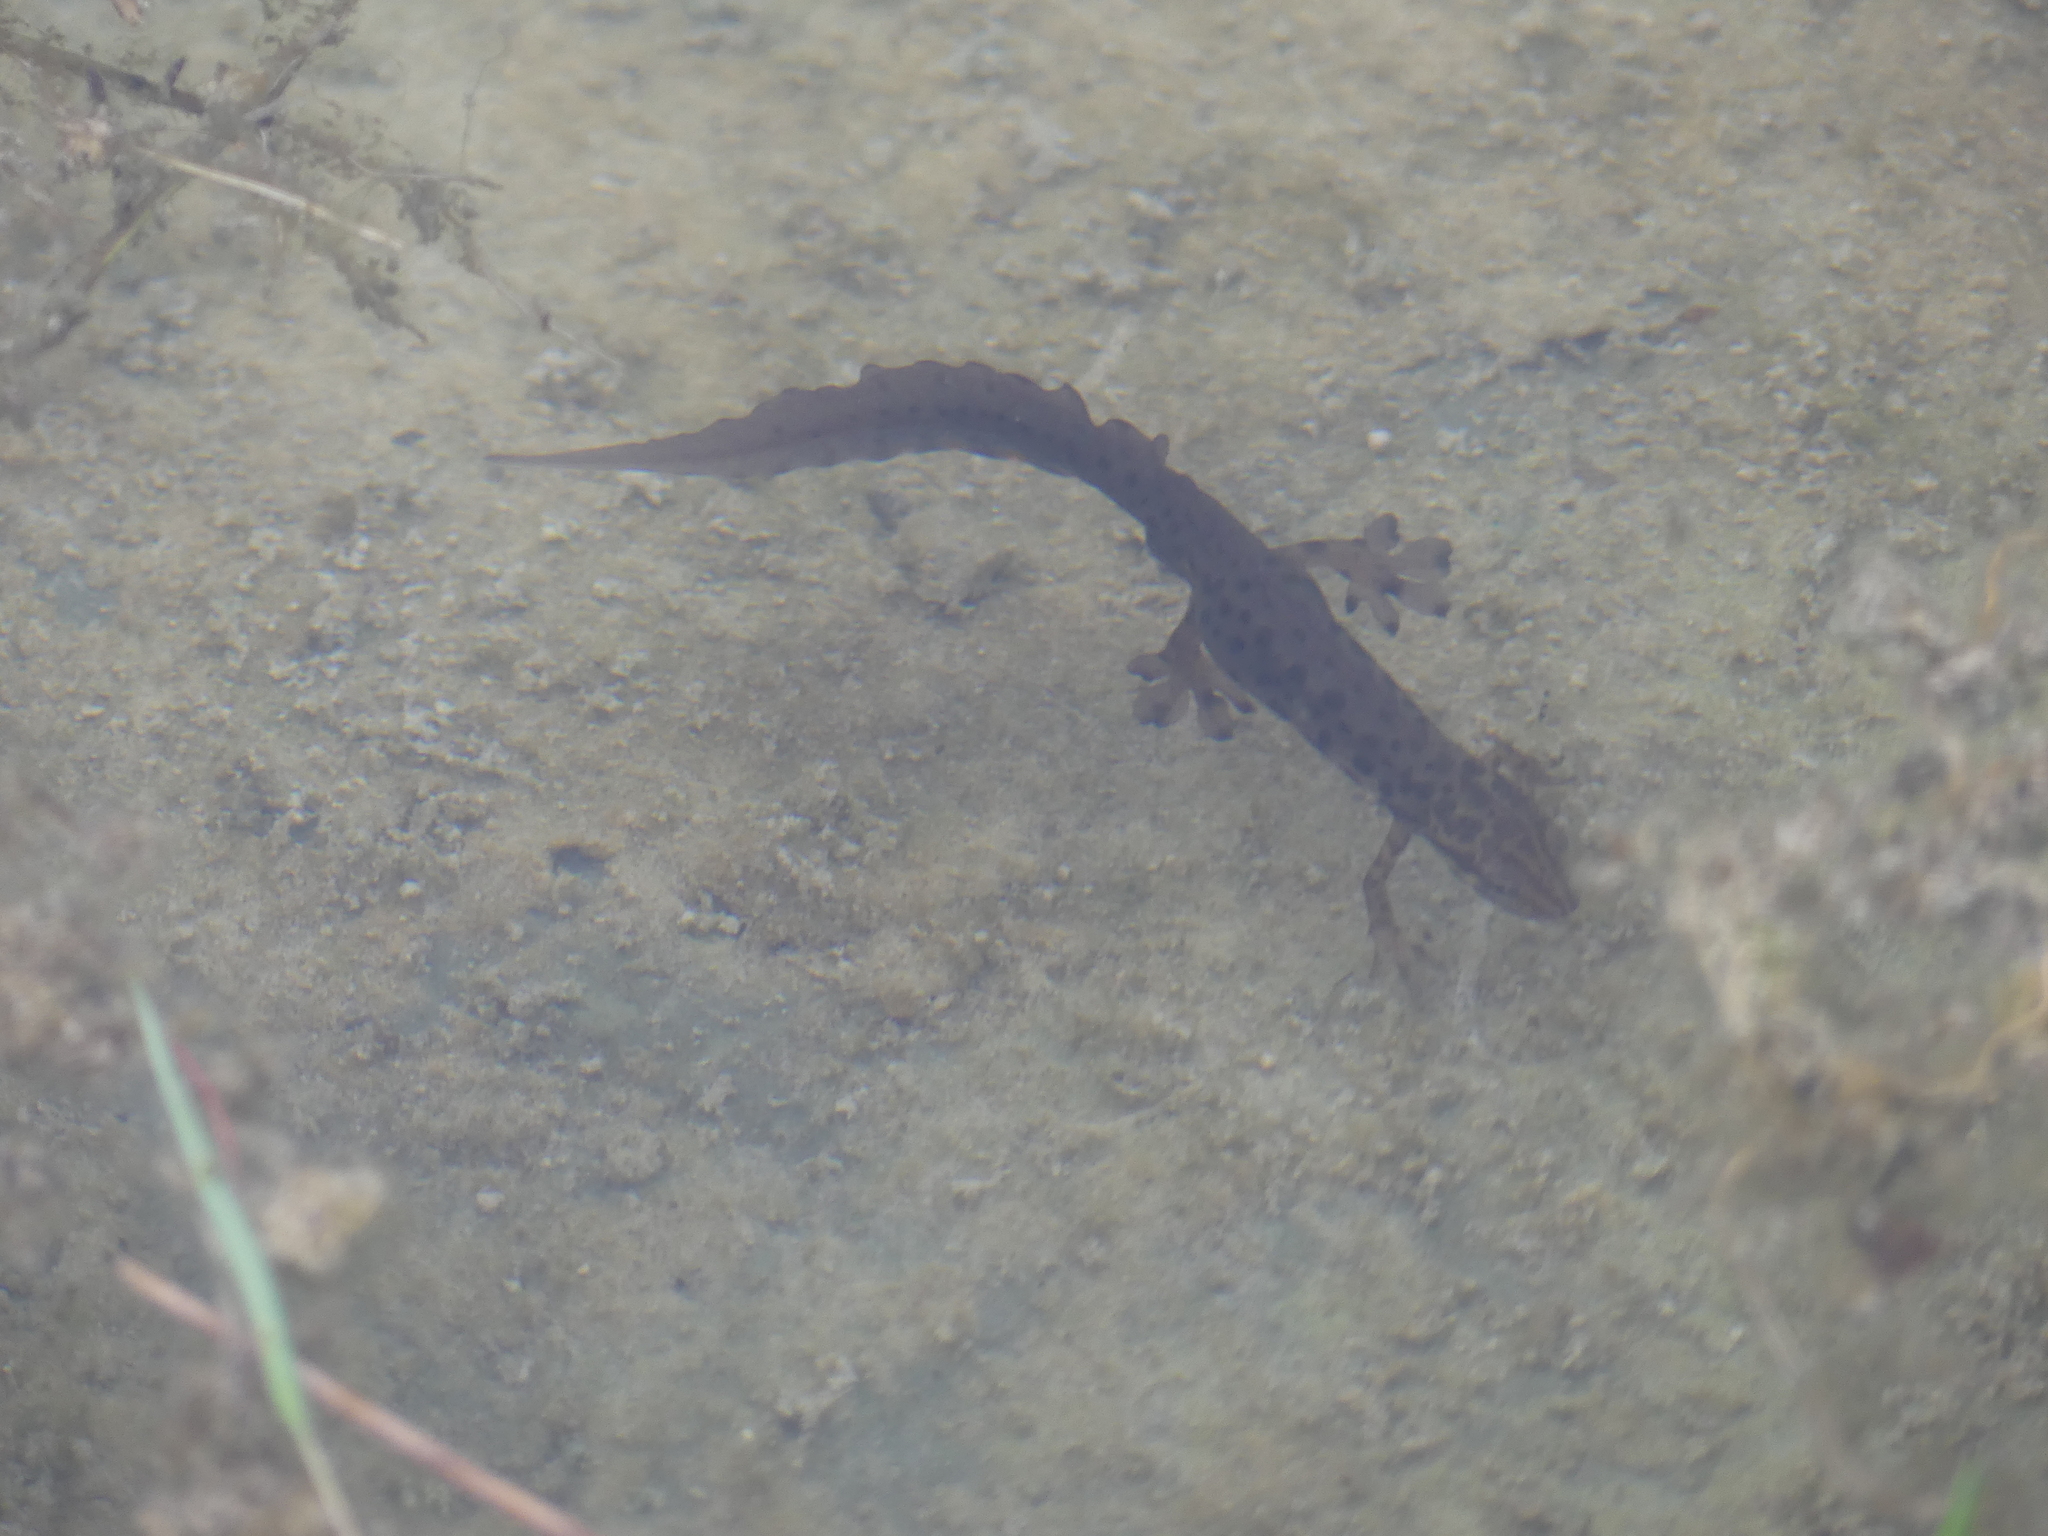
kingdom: Animalia
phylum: Chordata
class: Amphibia
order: Caudata
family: Salamandridae
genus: Lissotriton
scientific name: Lissotriton vulgaris
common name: Smooth newt
